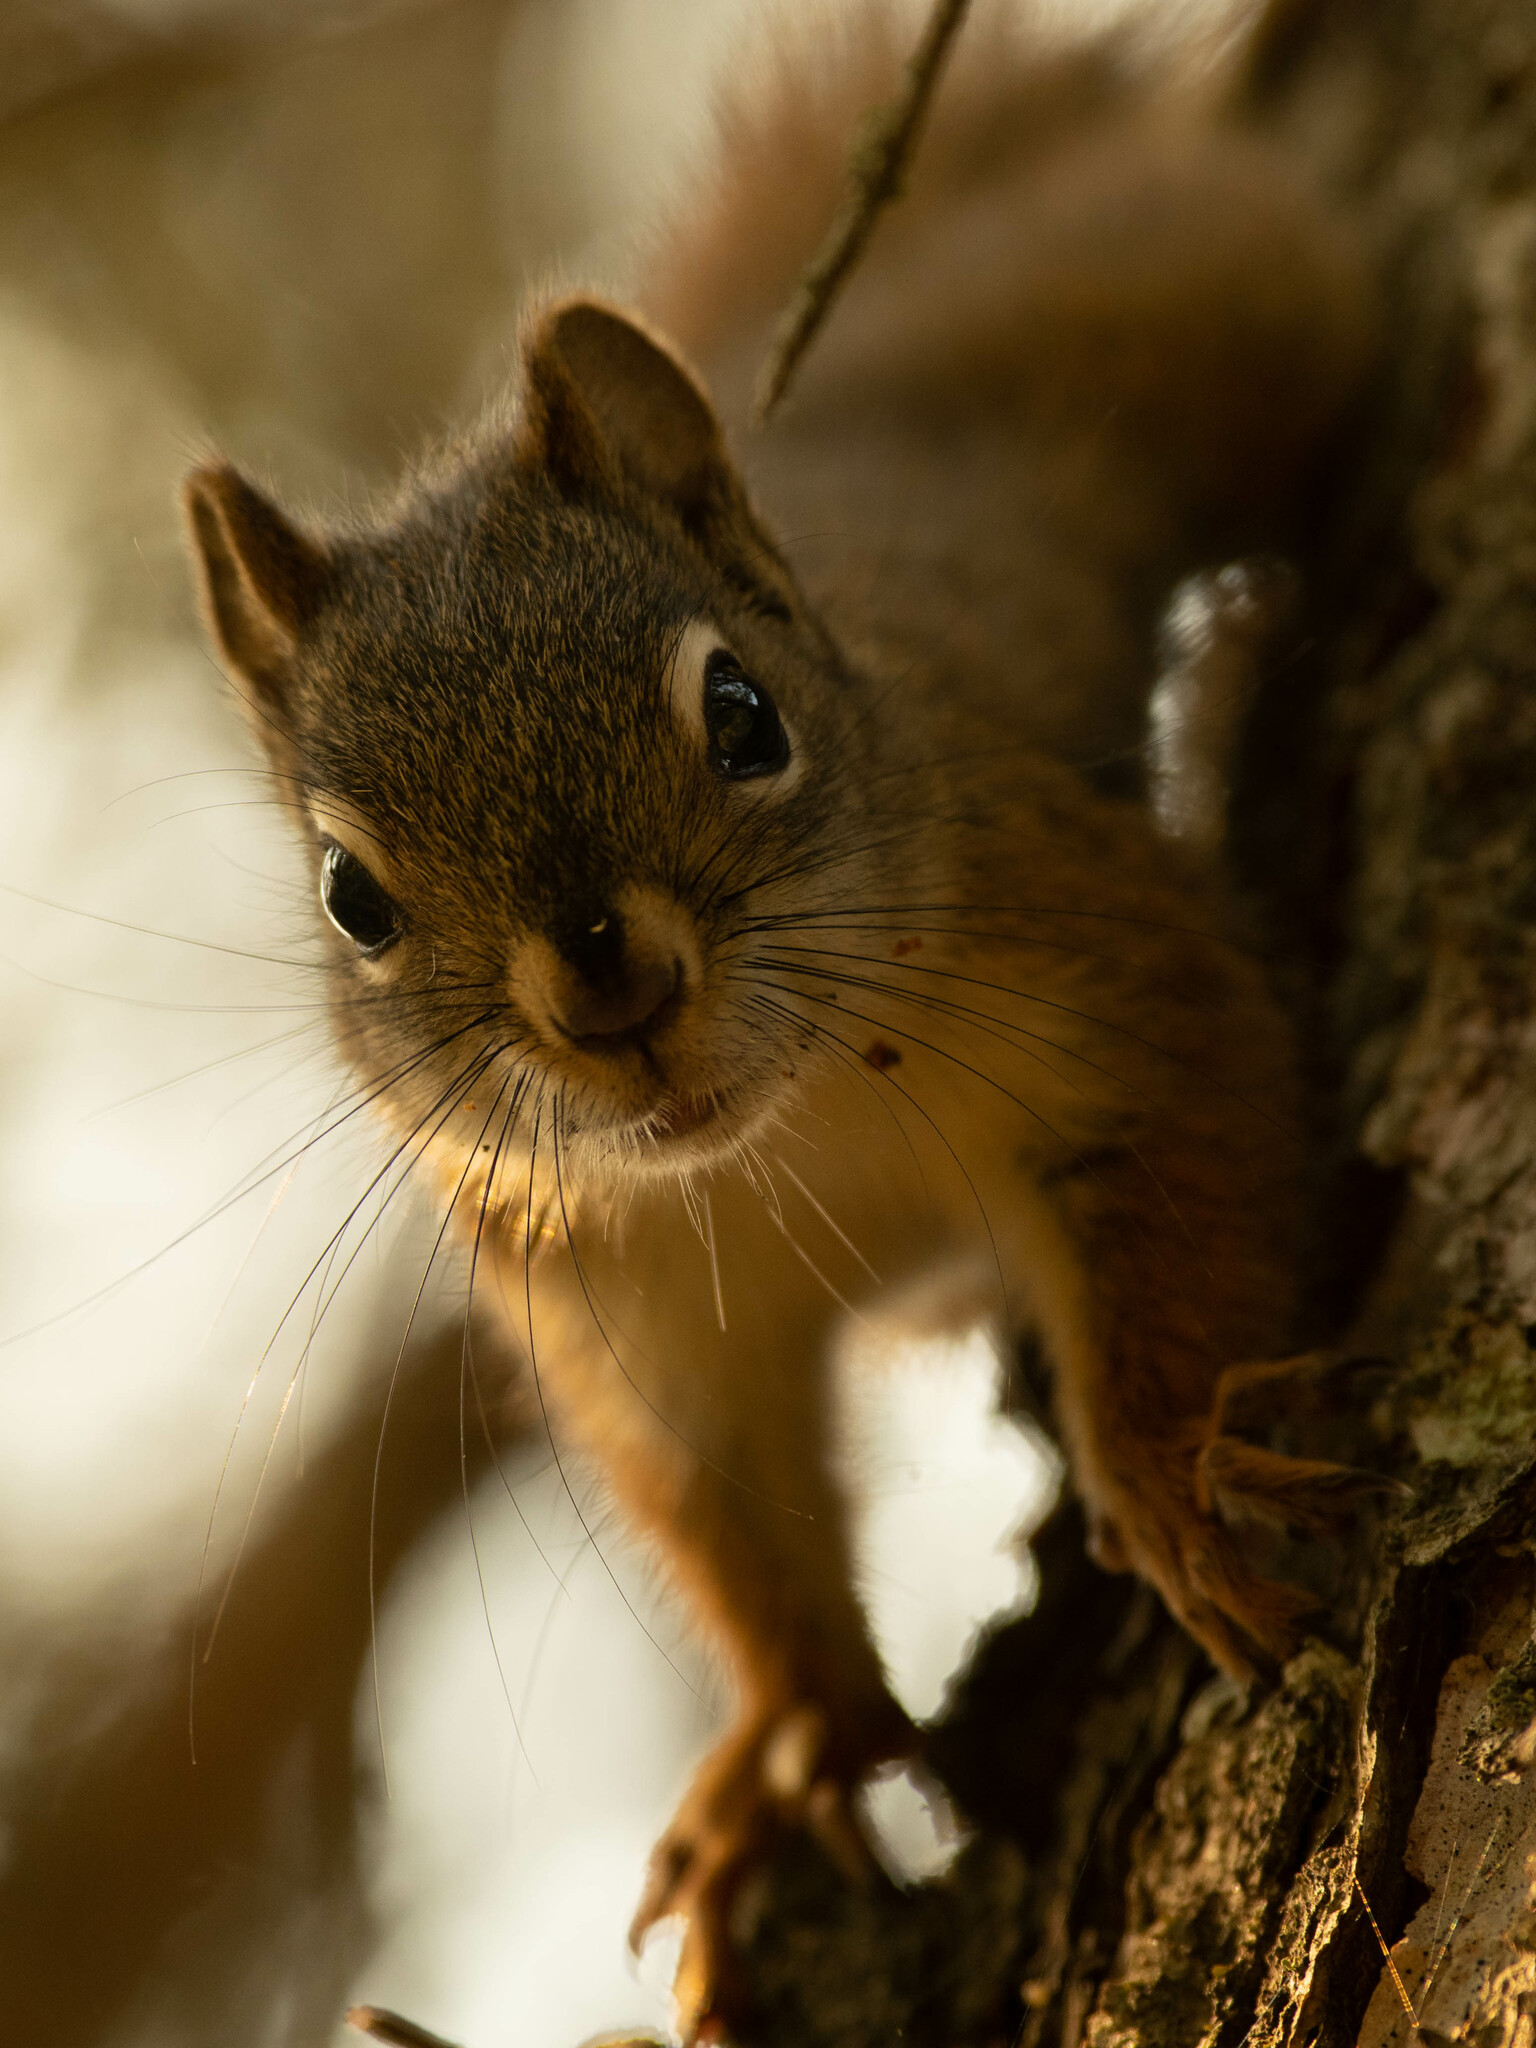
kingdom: Animalia
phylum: Chordata
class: Mammalia
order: Rodentia
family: Sciuridae
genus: Tamiasciurus
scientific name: Tamiasciurus hudsonicus
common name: Red squirrel
